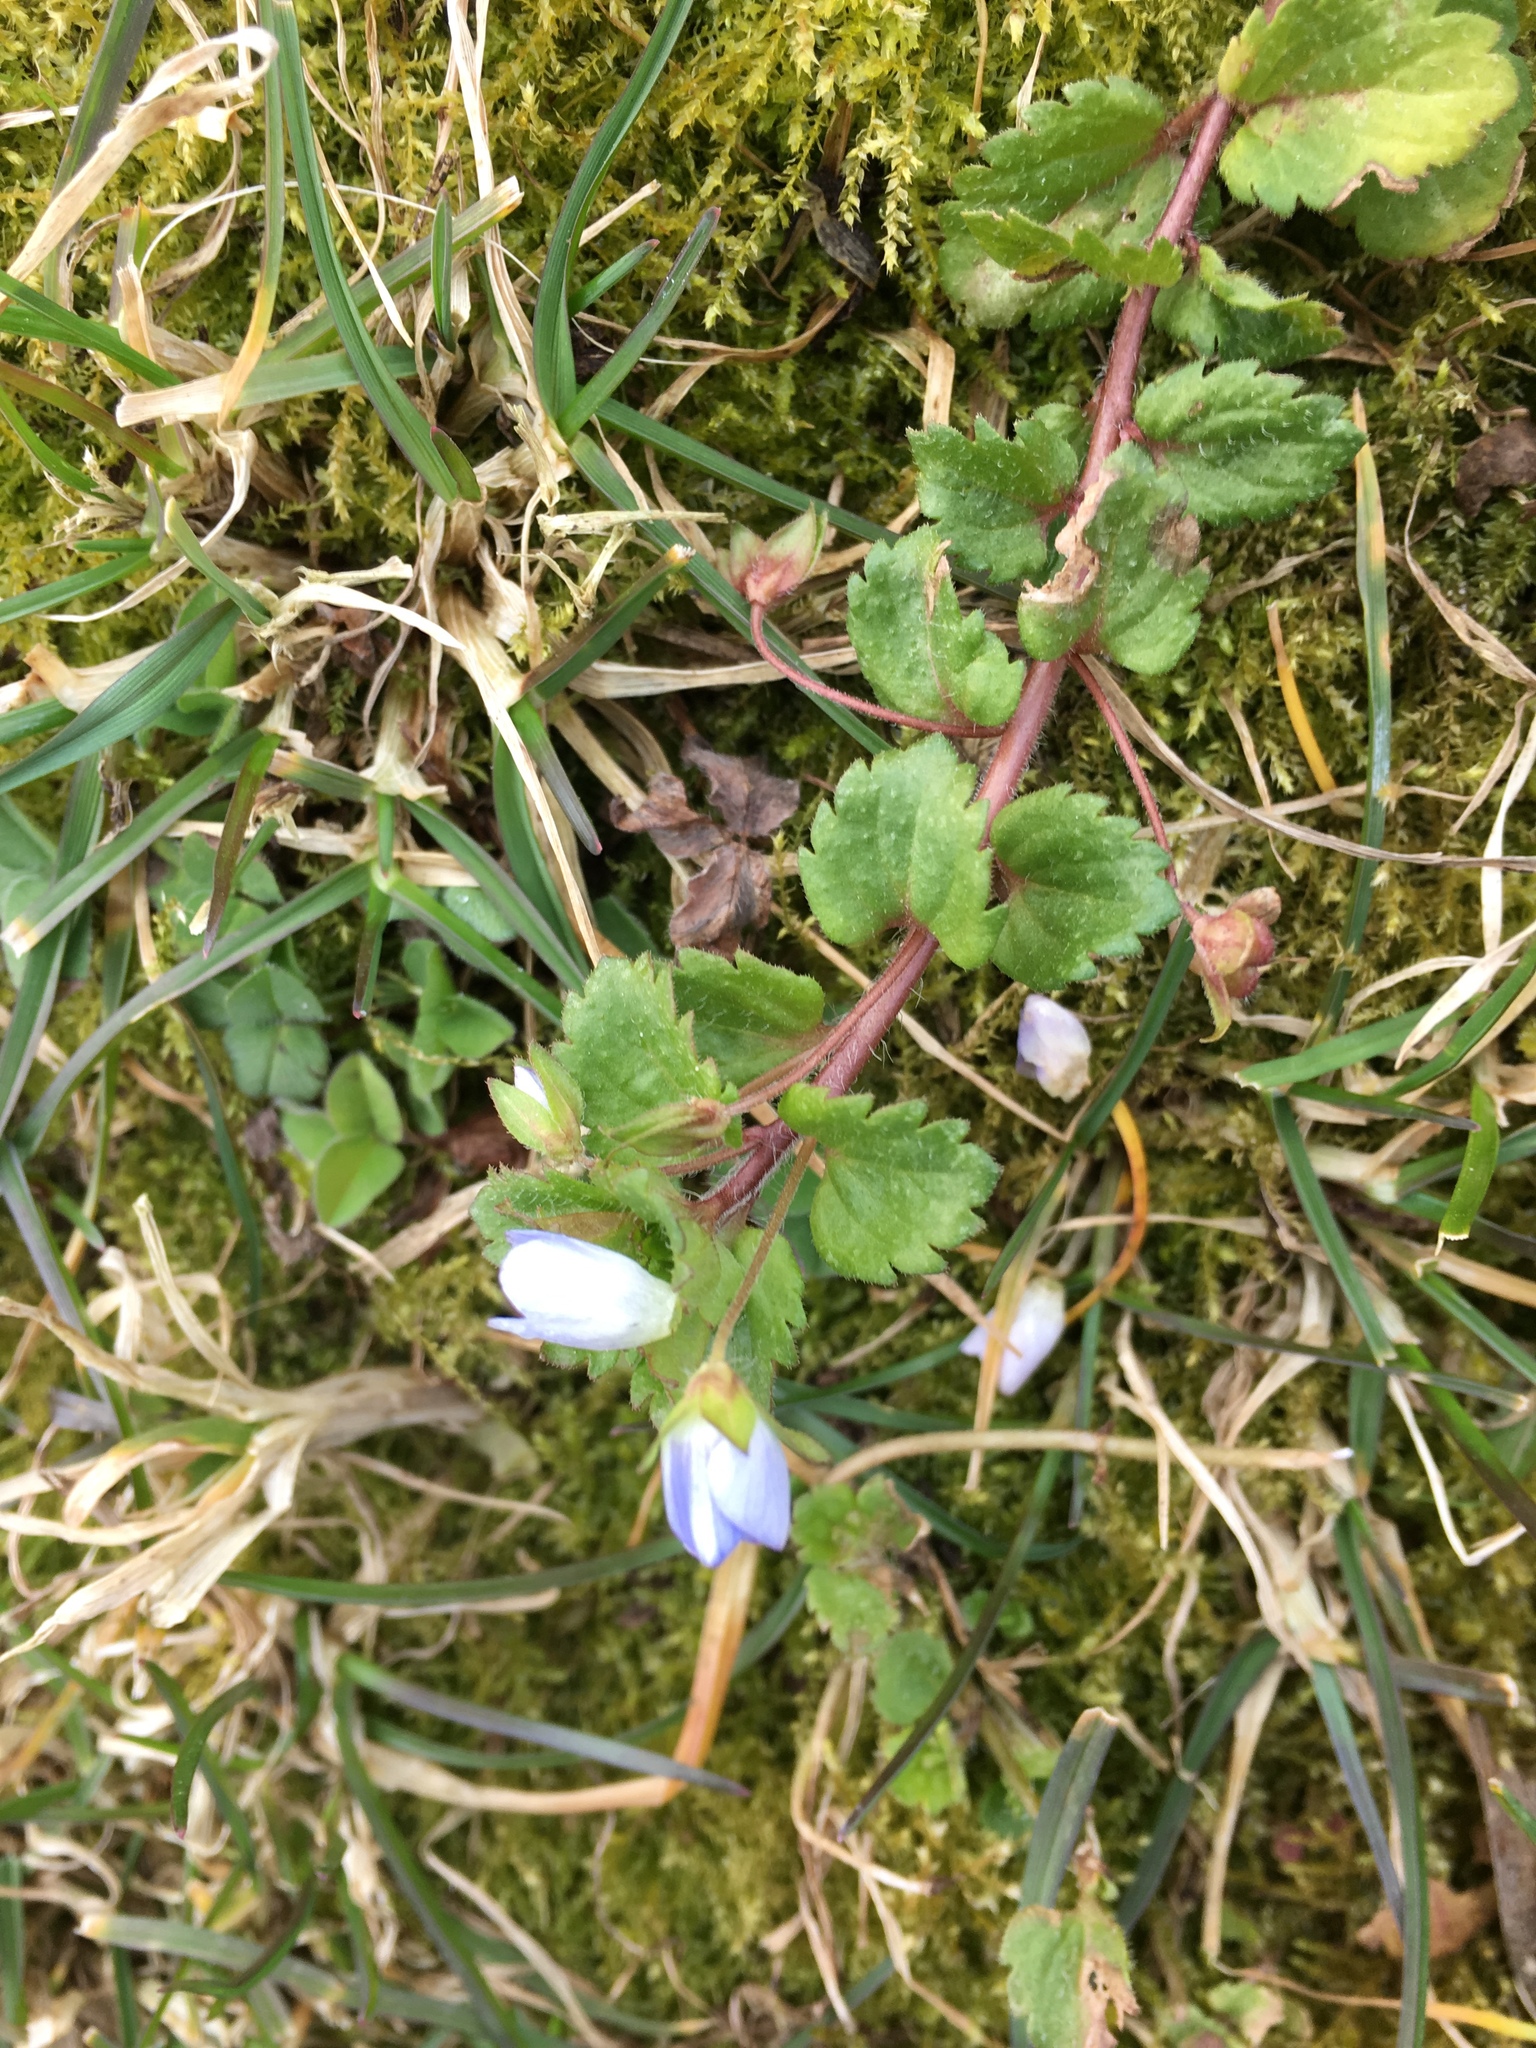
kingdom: Plantae
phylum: Tracheophyta
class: Magnoliopsida
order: Lamiales
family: Plantaginaceae
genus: Veronica
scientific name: Veronica persica
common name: Common field-speedwell
